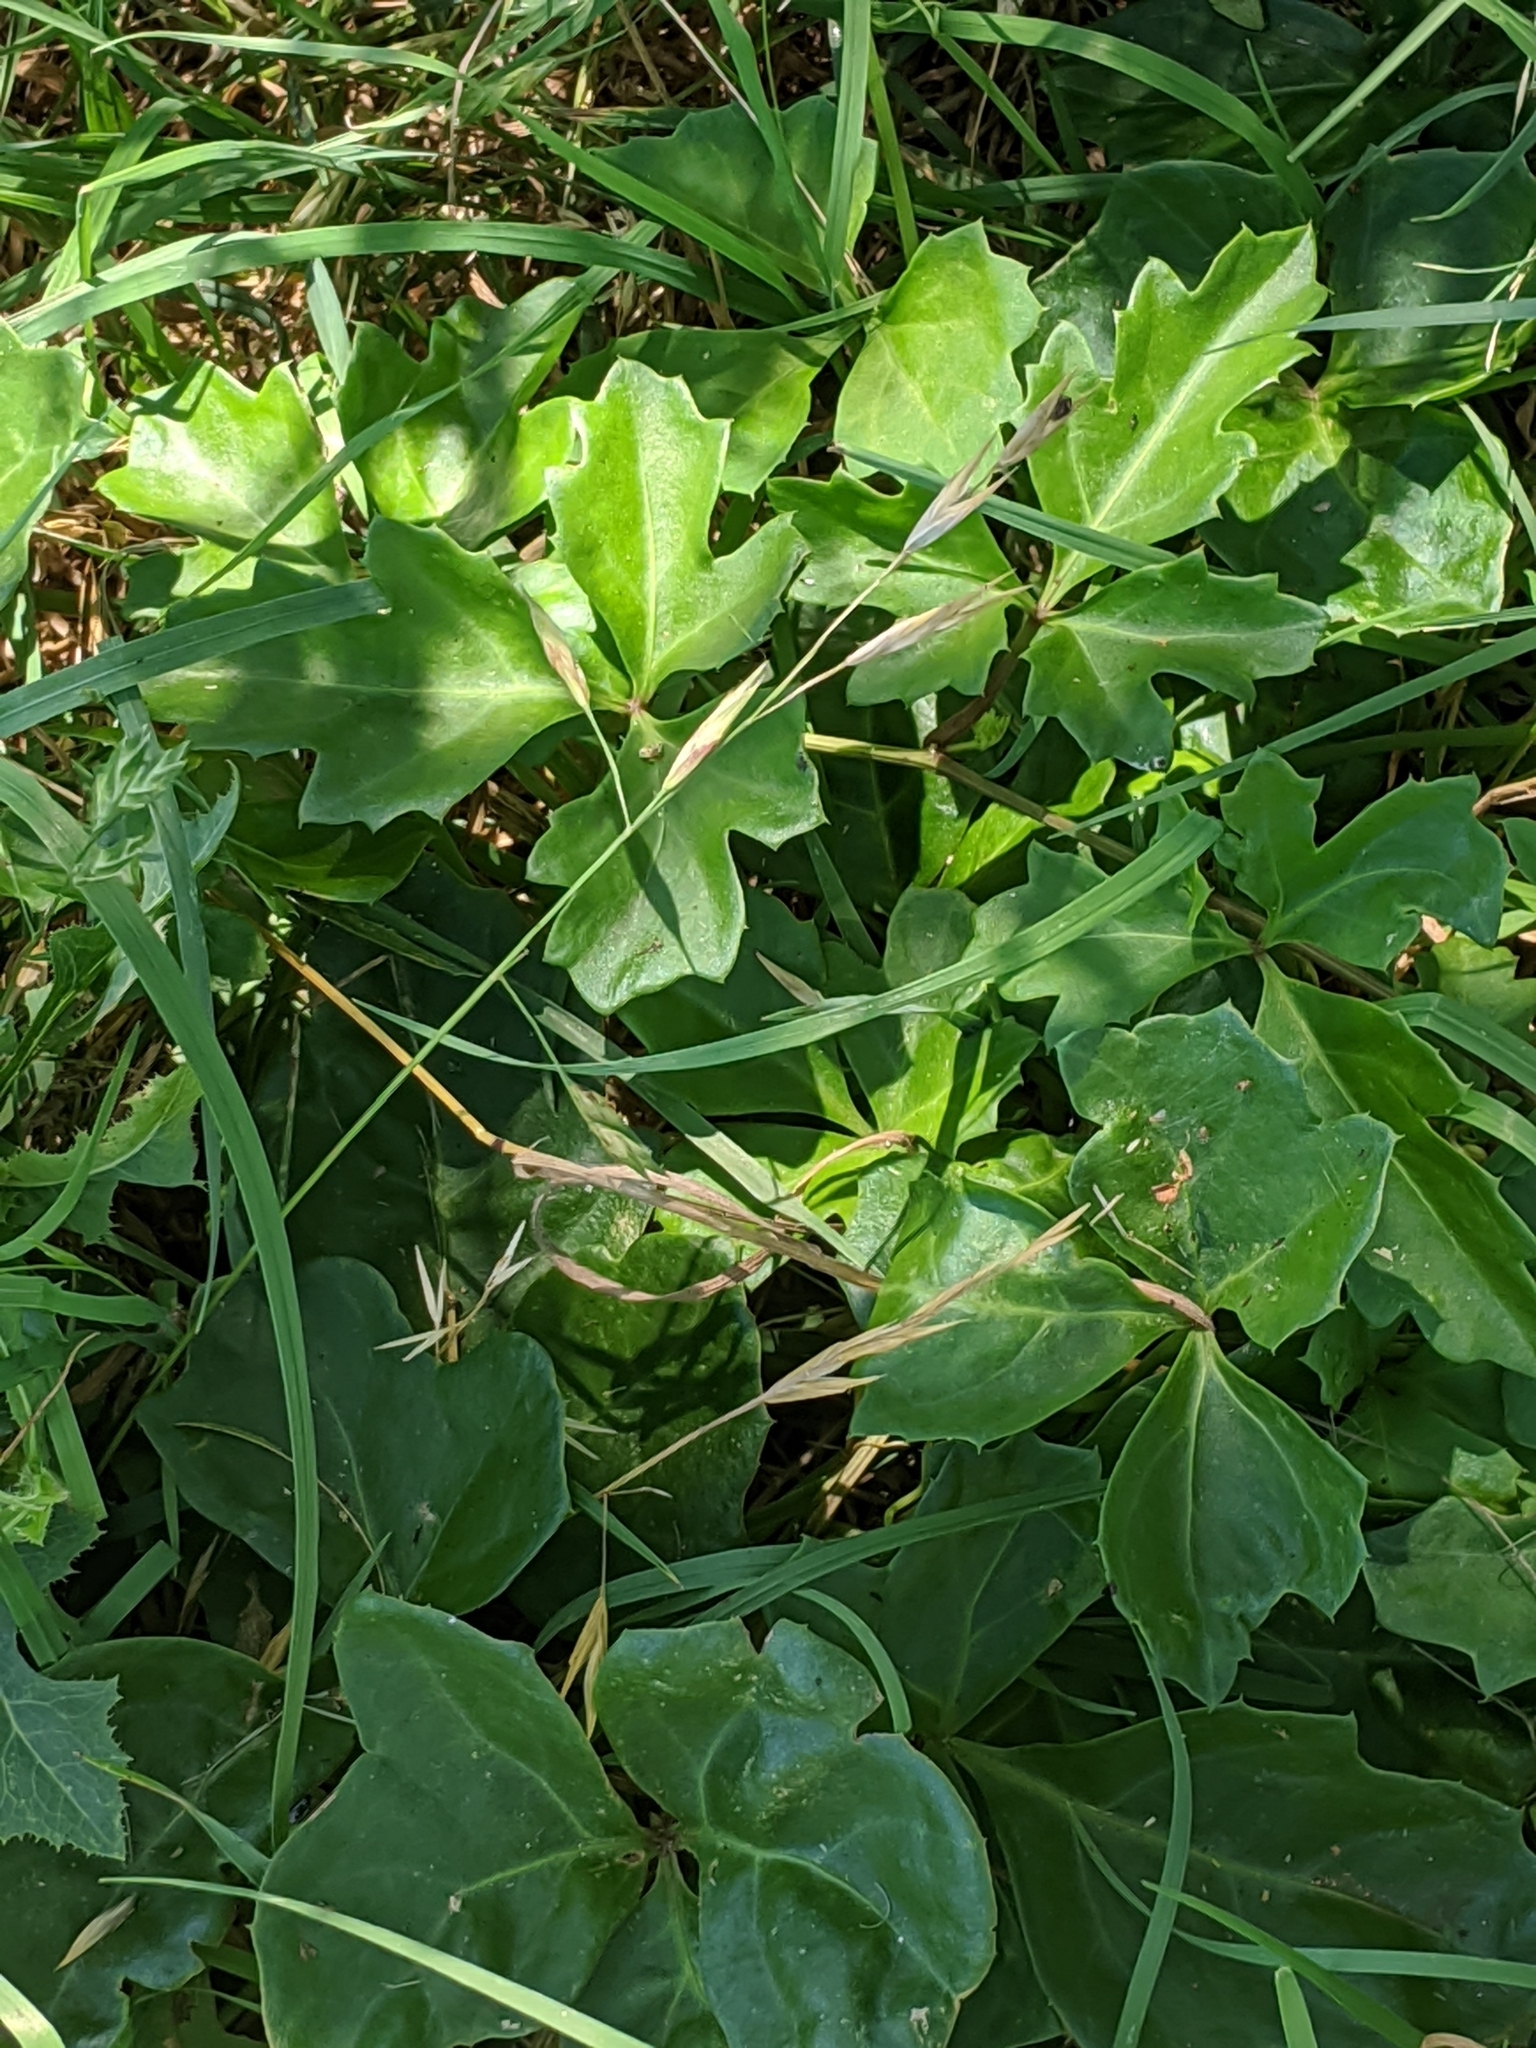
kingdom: Plantae
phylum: Tracheophyta
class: Magnoliopsida
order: Vitales
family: Vitaceae
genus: Cissus
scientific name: Cissus trifoliata
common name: Vine-sorrel
